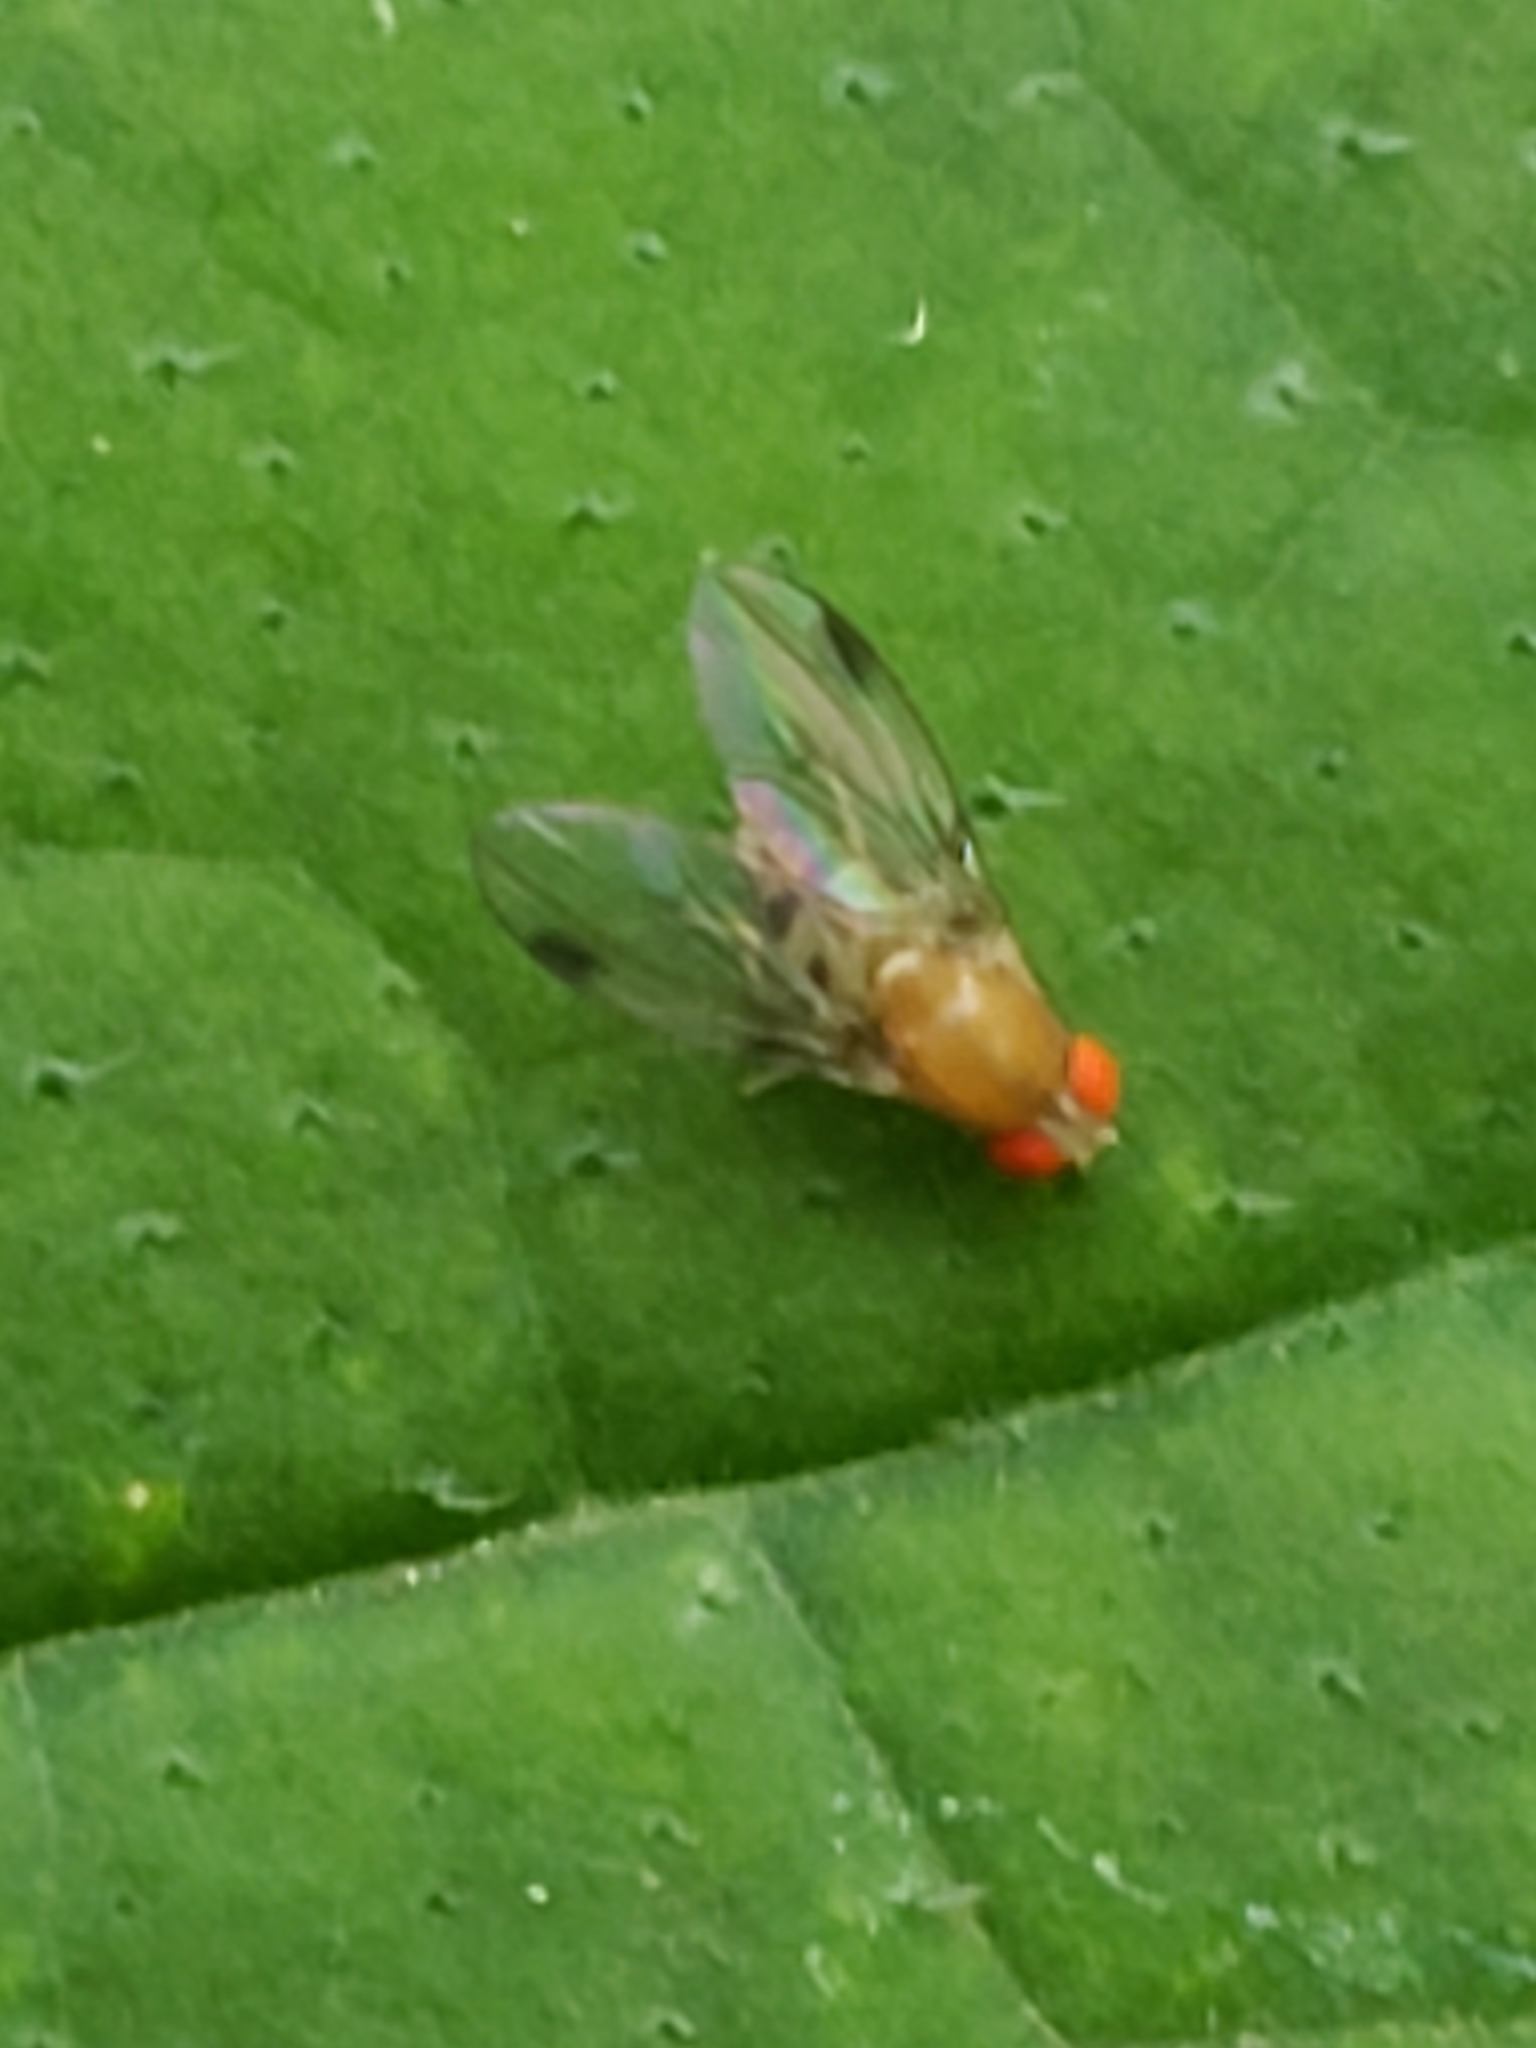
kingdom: Animalia
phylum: Arthropoda
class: Insecta
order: Diptera
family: Drosophilidae
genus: Leucophenga
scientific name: Leucophenga varia
